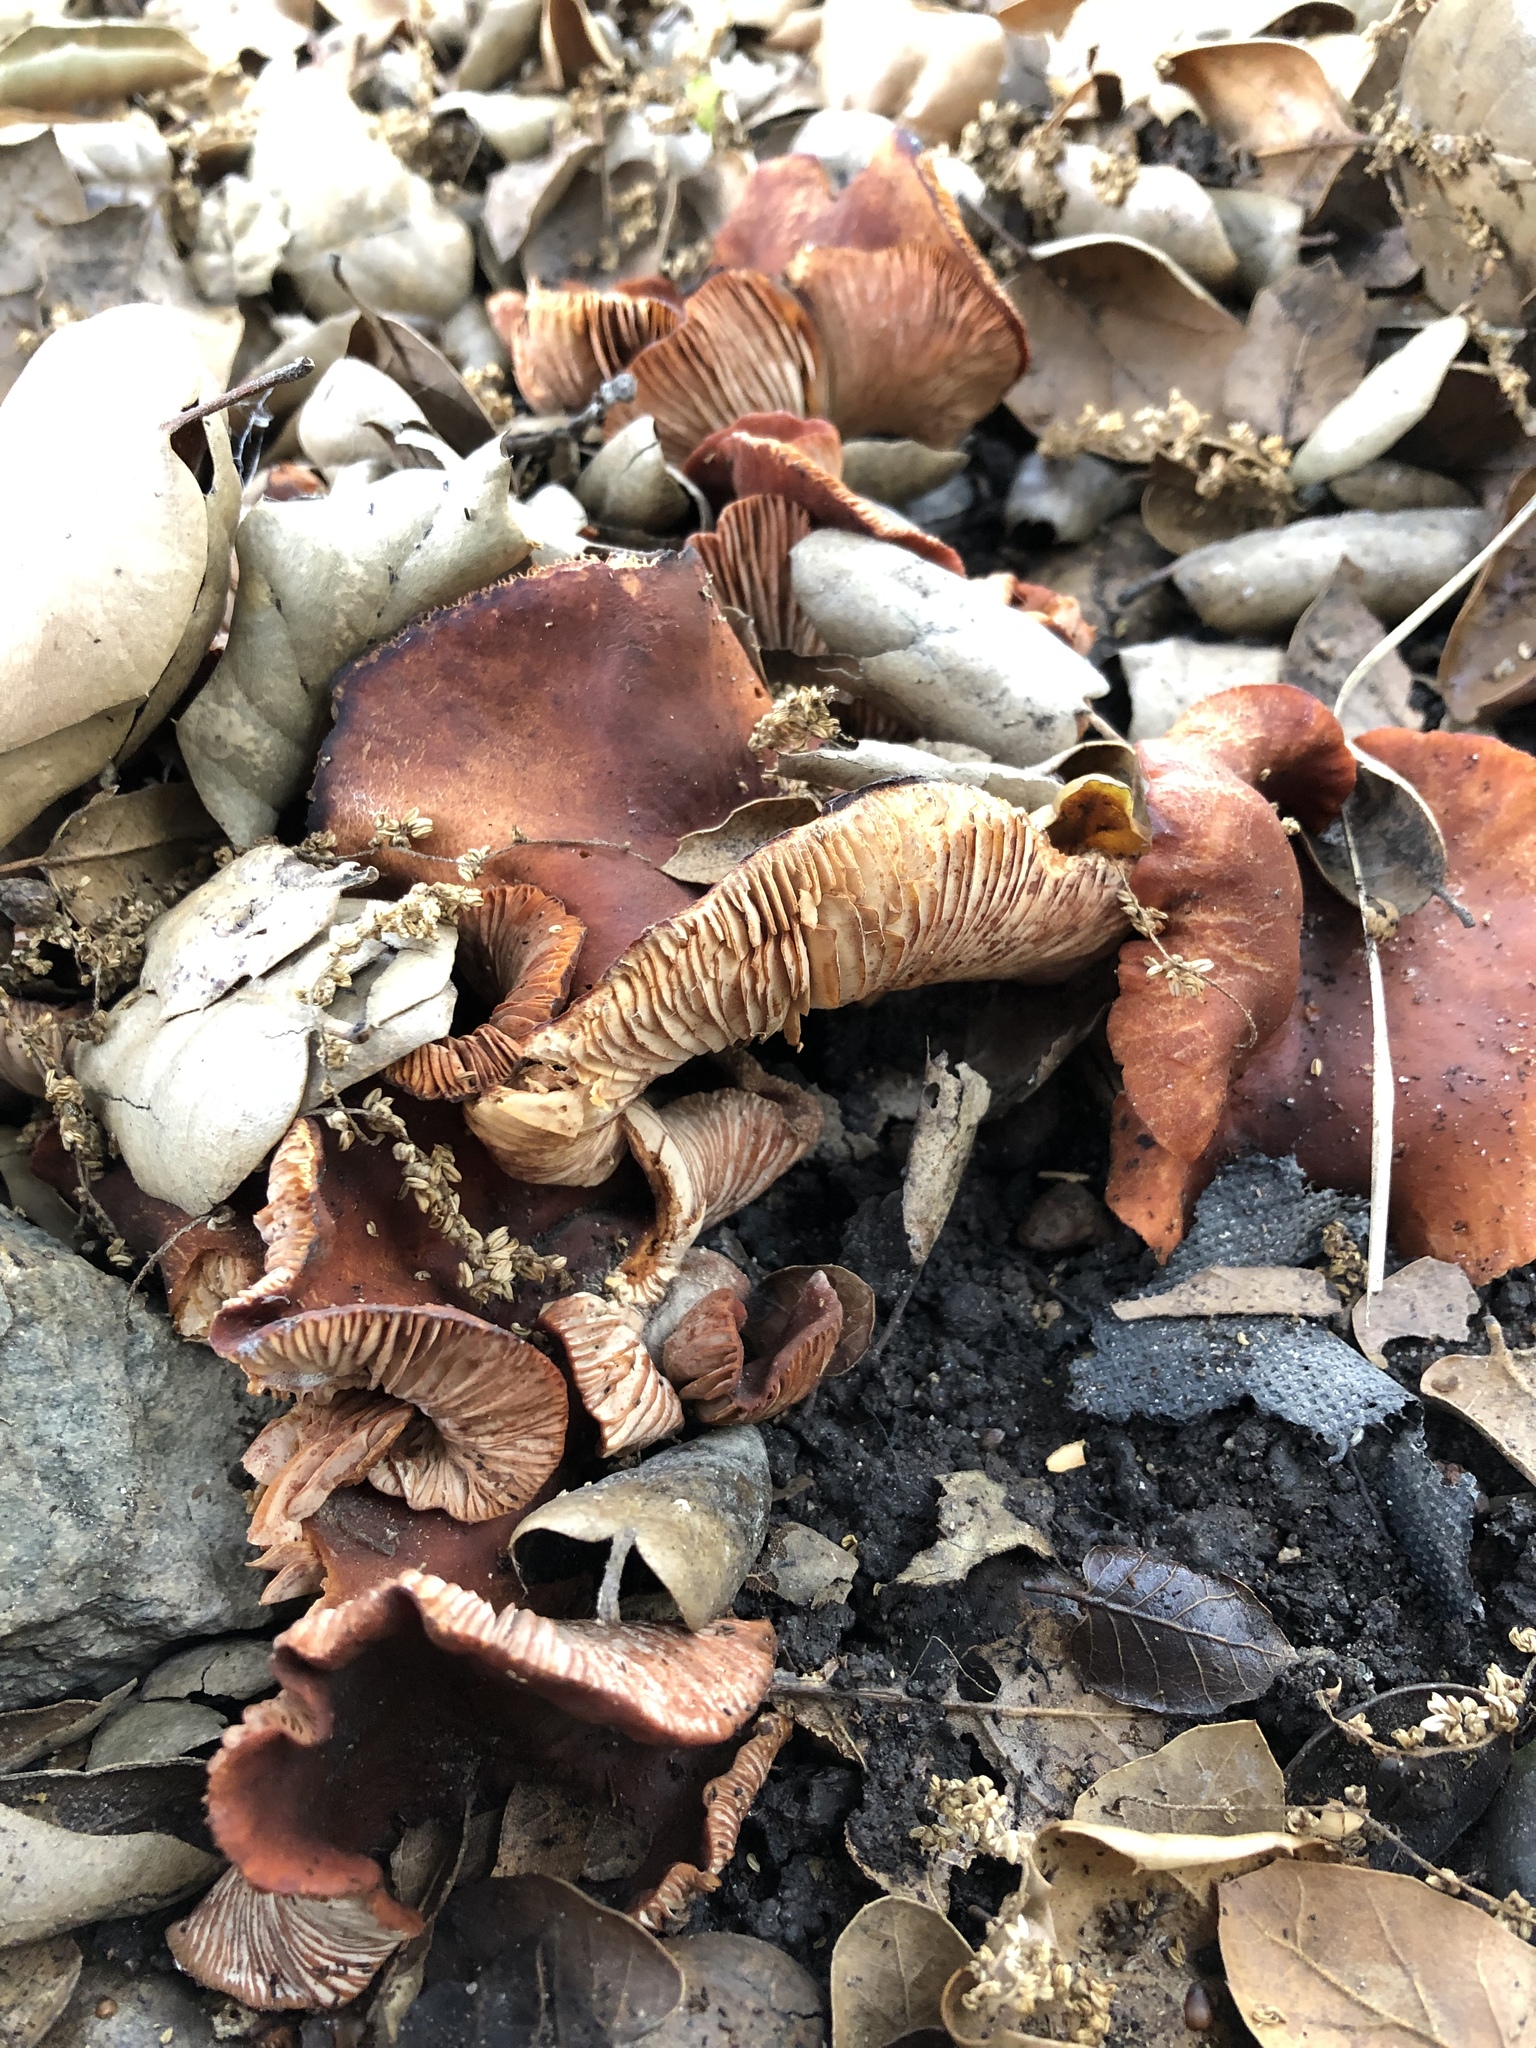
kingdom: Fungi
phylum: Basidiomycota
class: Agaricomycetes
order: Russulales
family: Russulaceae
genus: Lactarius
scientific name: Lactarius rufulus
